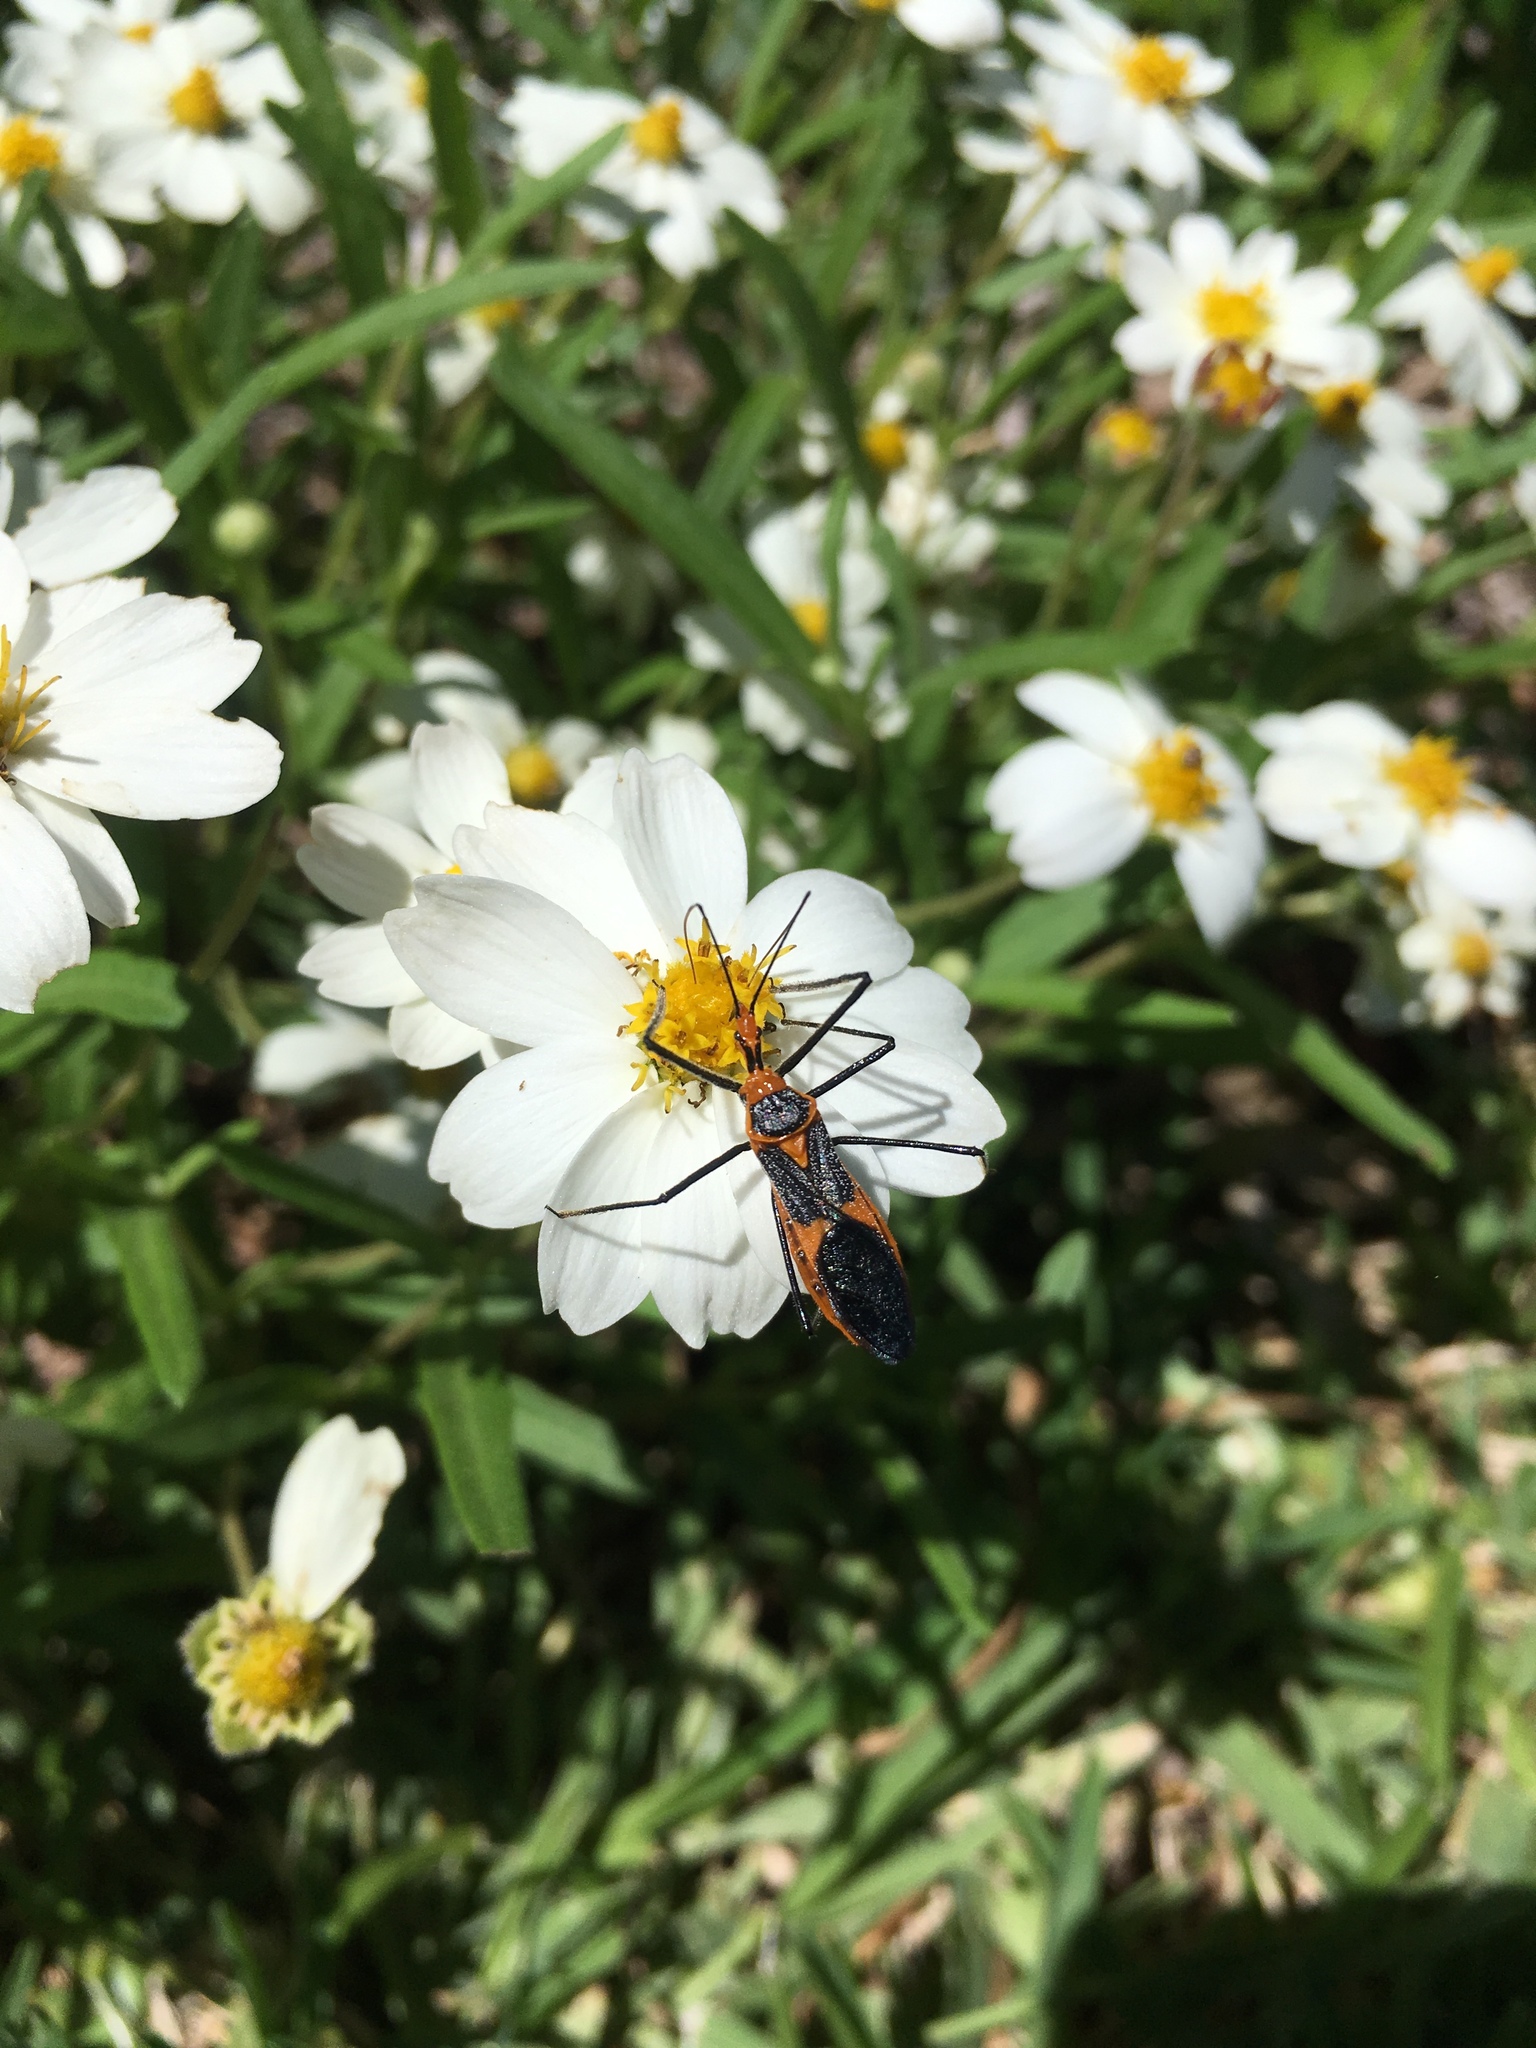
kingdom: Animalia
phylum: Arthropoda
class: Insecta
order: Hemiptera
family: Reduviidae
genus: Zelus
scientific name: Zelus longipes
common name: Milkweed assassin bug
